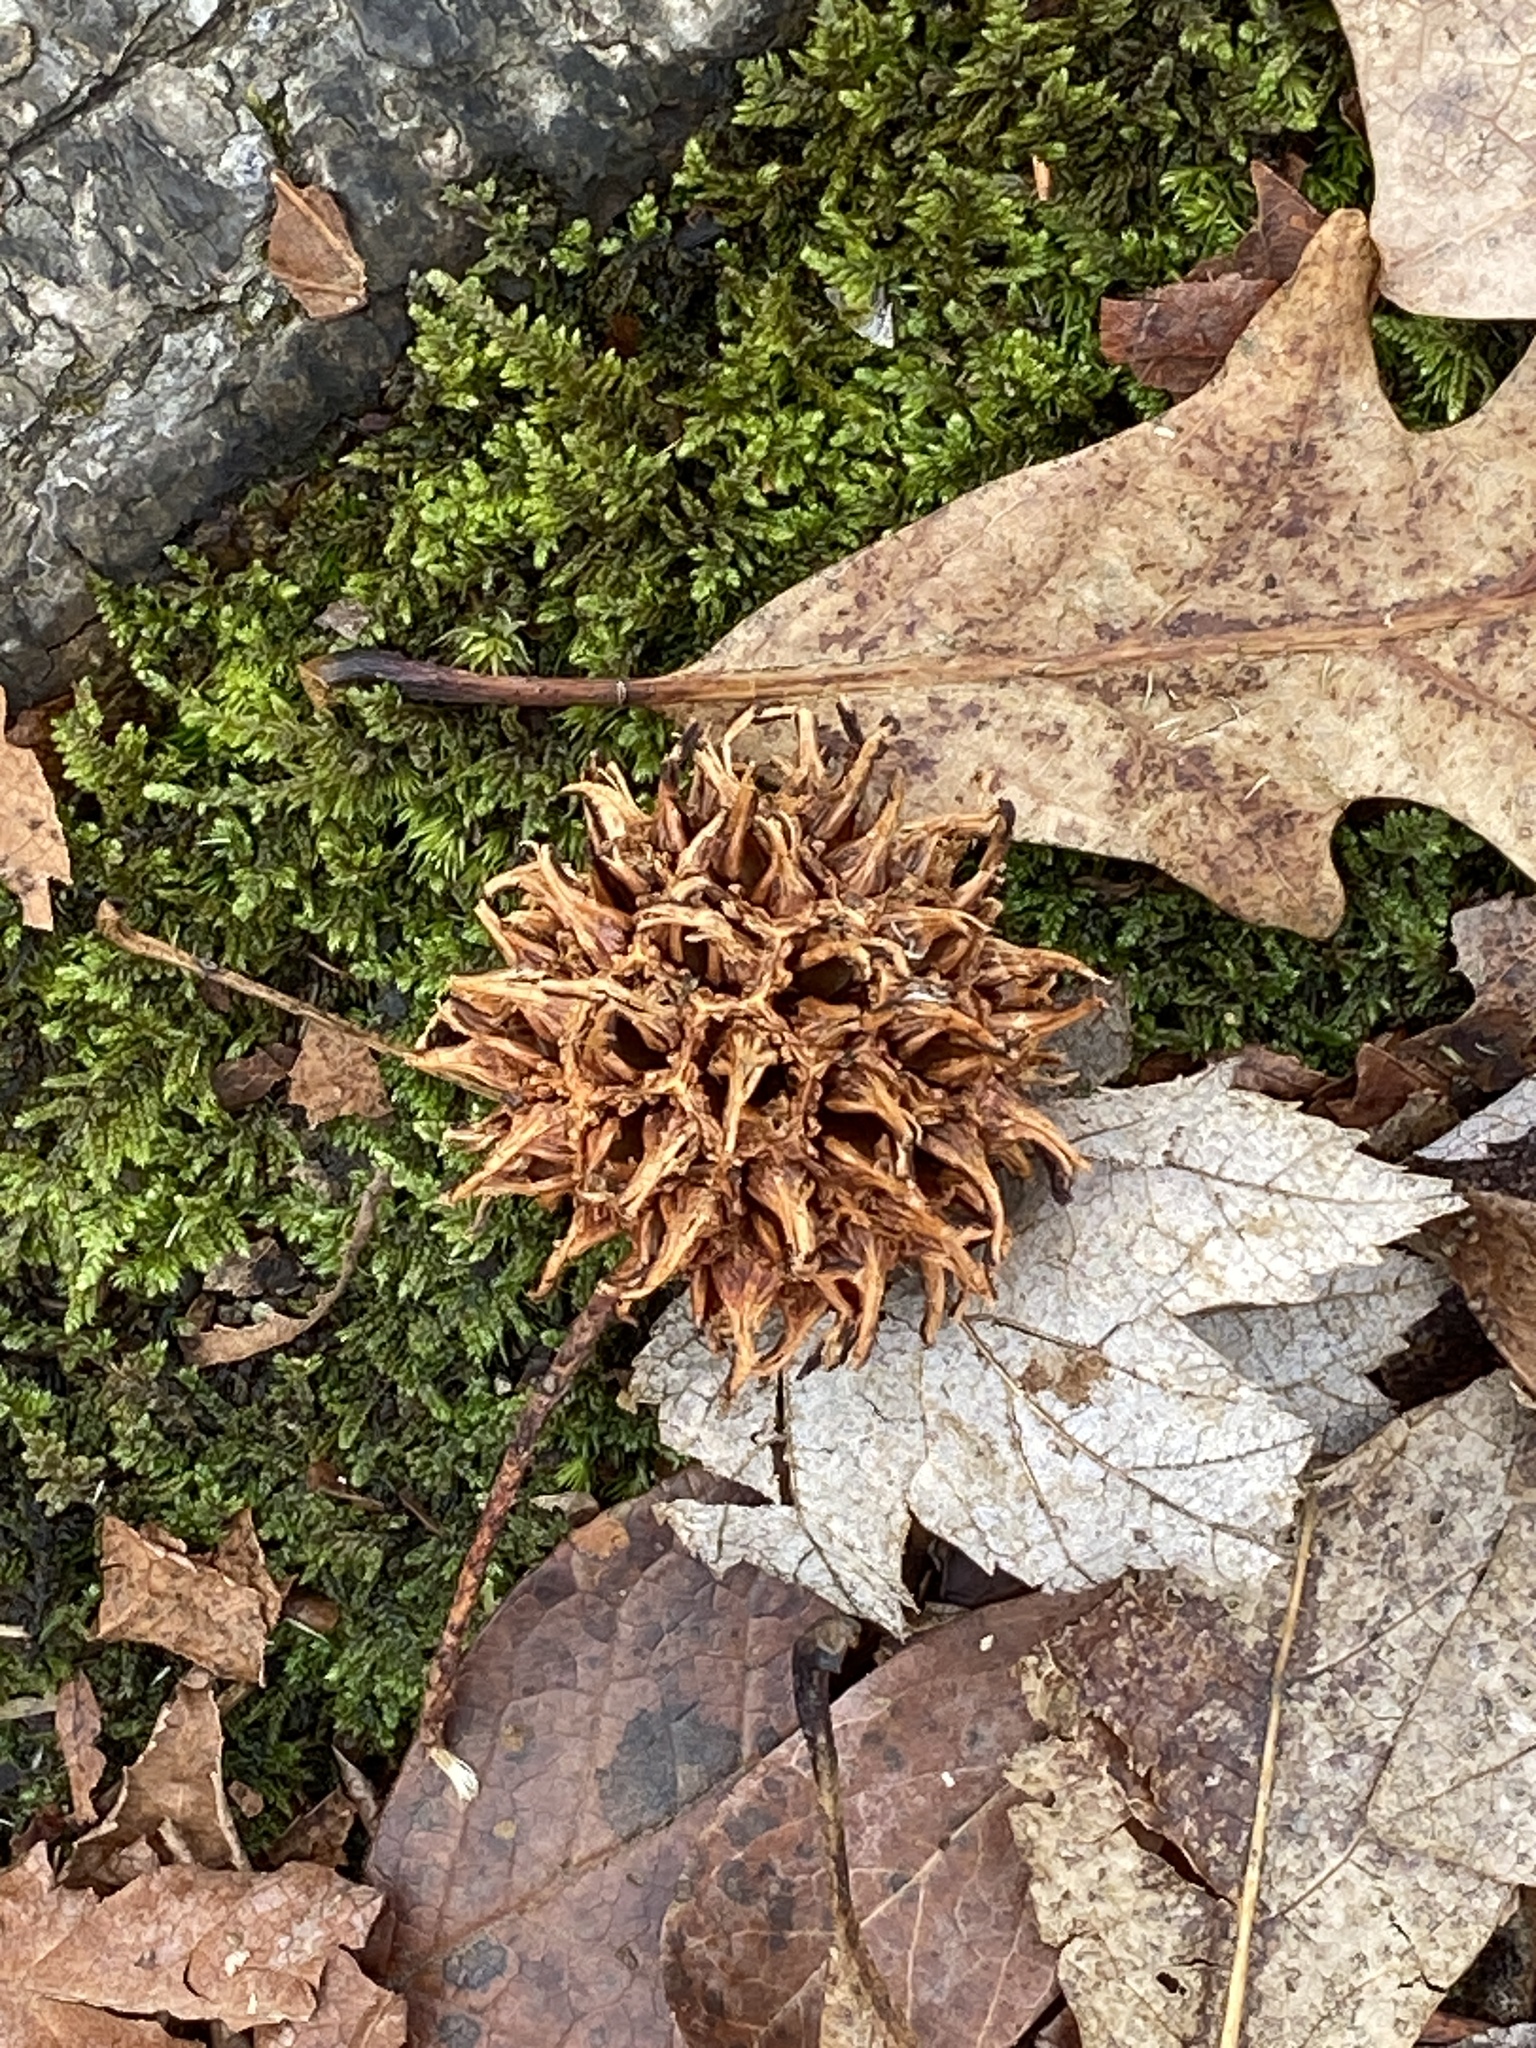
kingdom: Plantae
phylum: Tracheophyta
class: Magnoliopsida
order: Saxifragales
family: Altingiaceae
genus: Liquidambar
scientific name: Liquidambar styraciflua
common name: Sweet gum
